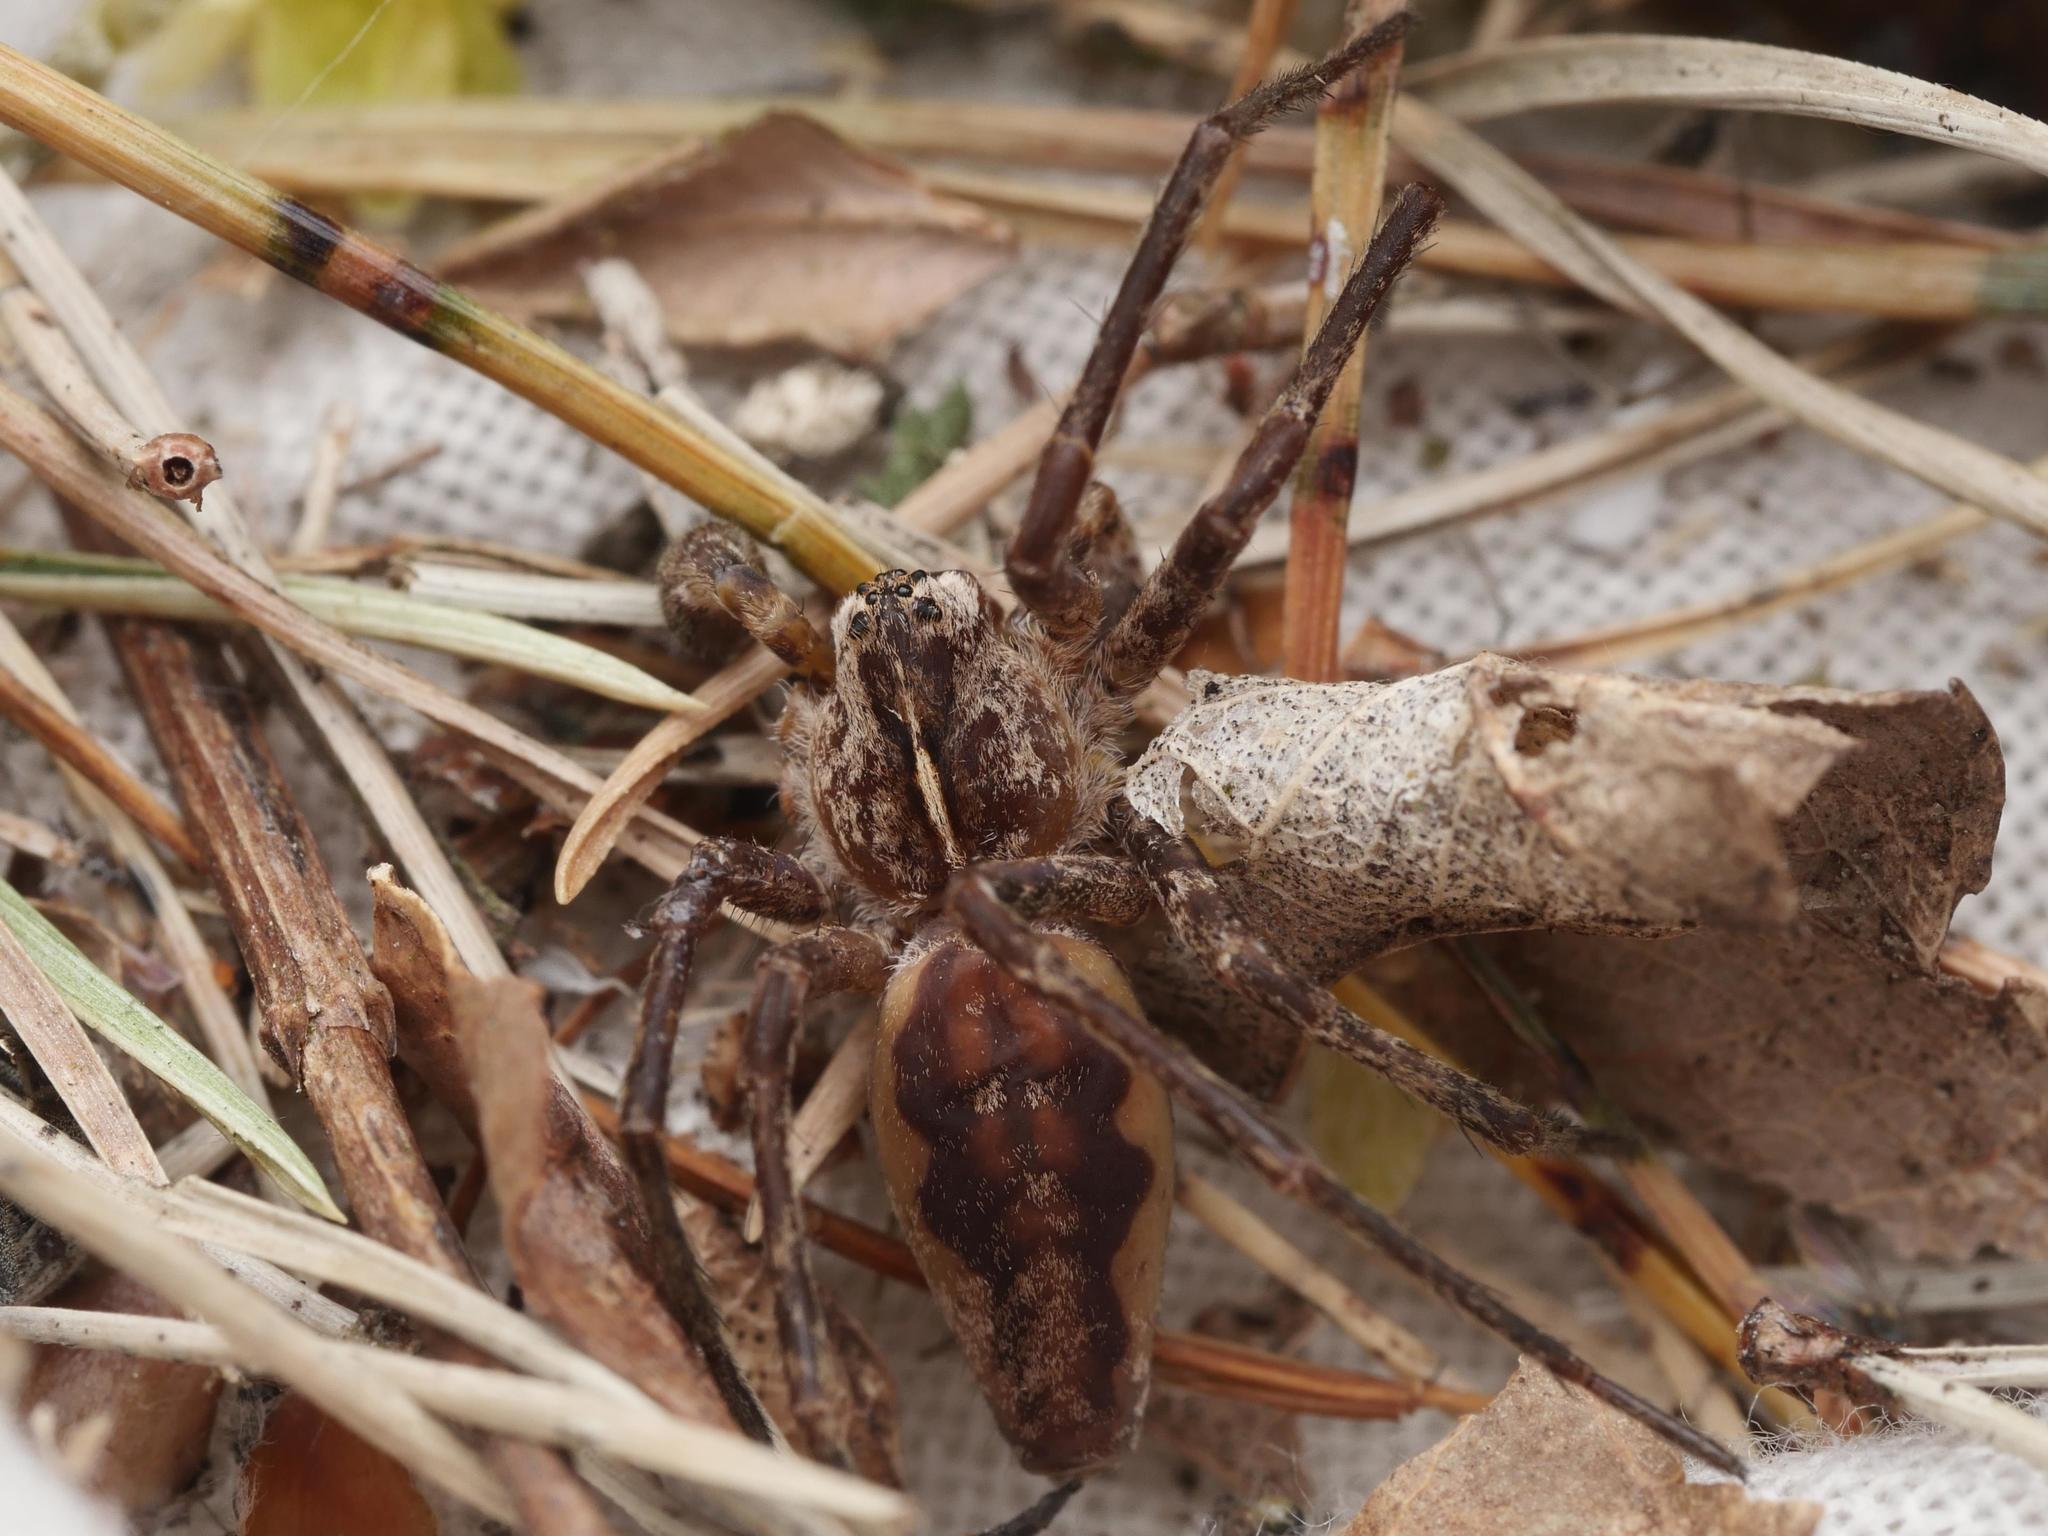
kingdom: Animalia
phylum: Arthropoda
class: Arachnida
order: Araneae
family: Pisauridae
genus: Pisaura
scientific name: Pisaura mirabilis
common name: Tent spider
